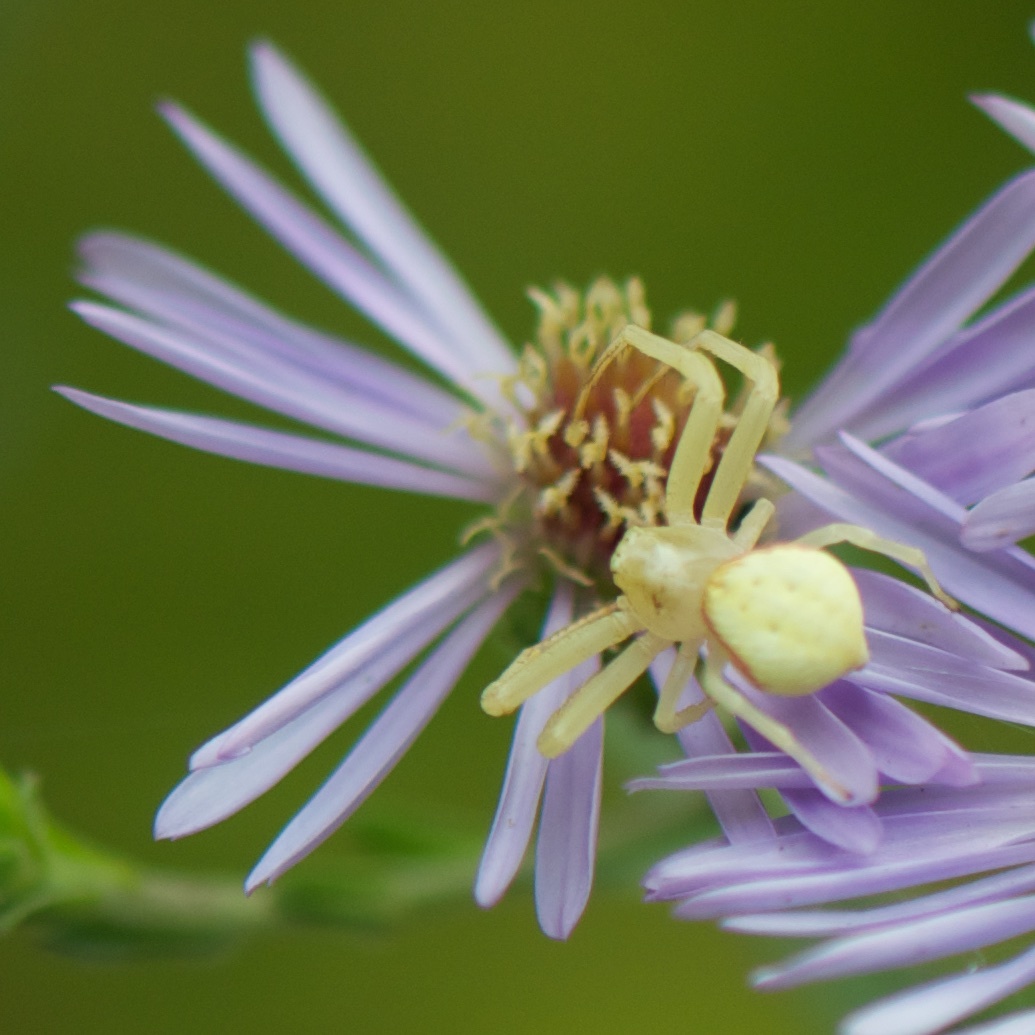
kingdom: Animalia
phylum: Arthropoda
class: Arachnida
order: Araneae
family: Thomisidae
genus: Misumena
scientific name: Misumena vatia
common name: Goldenrod crab spider
